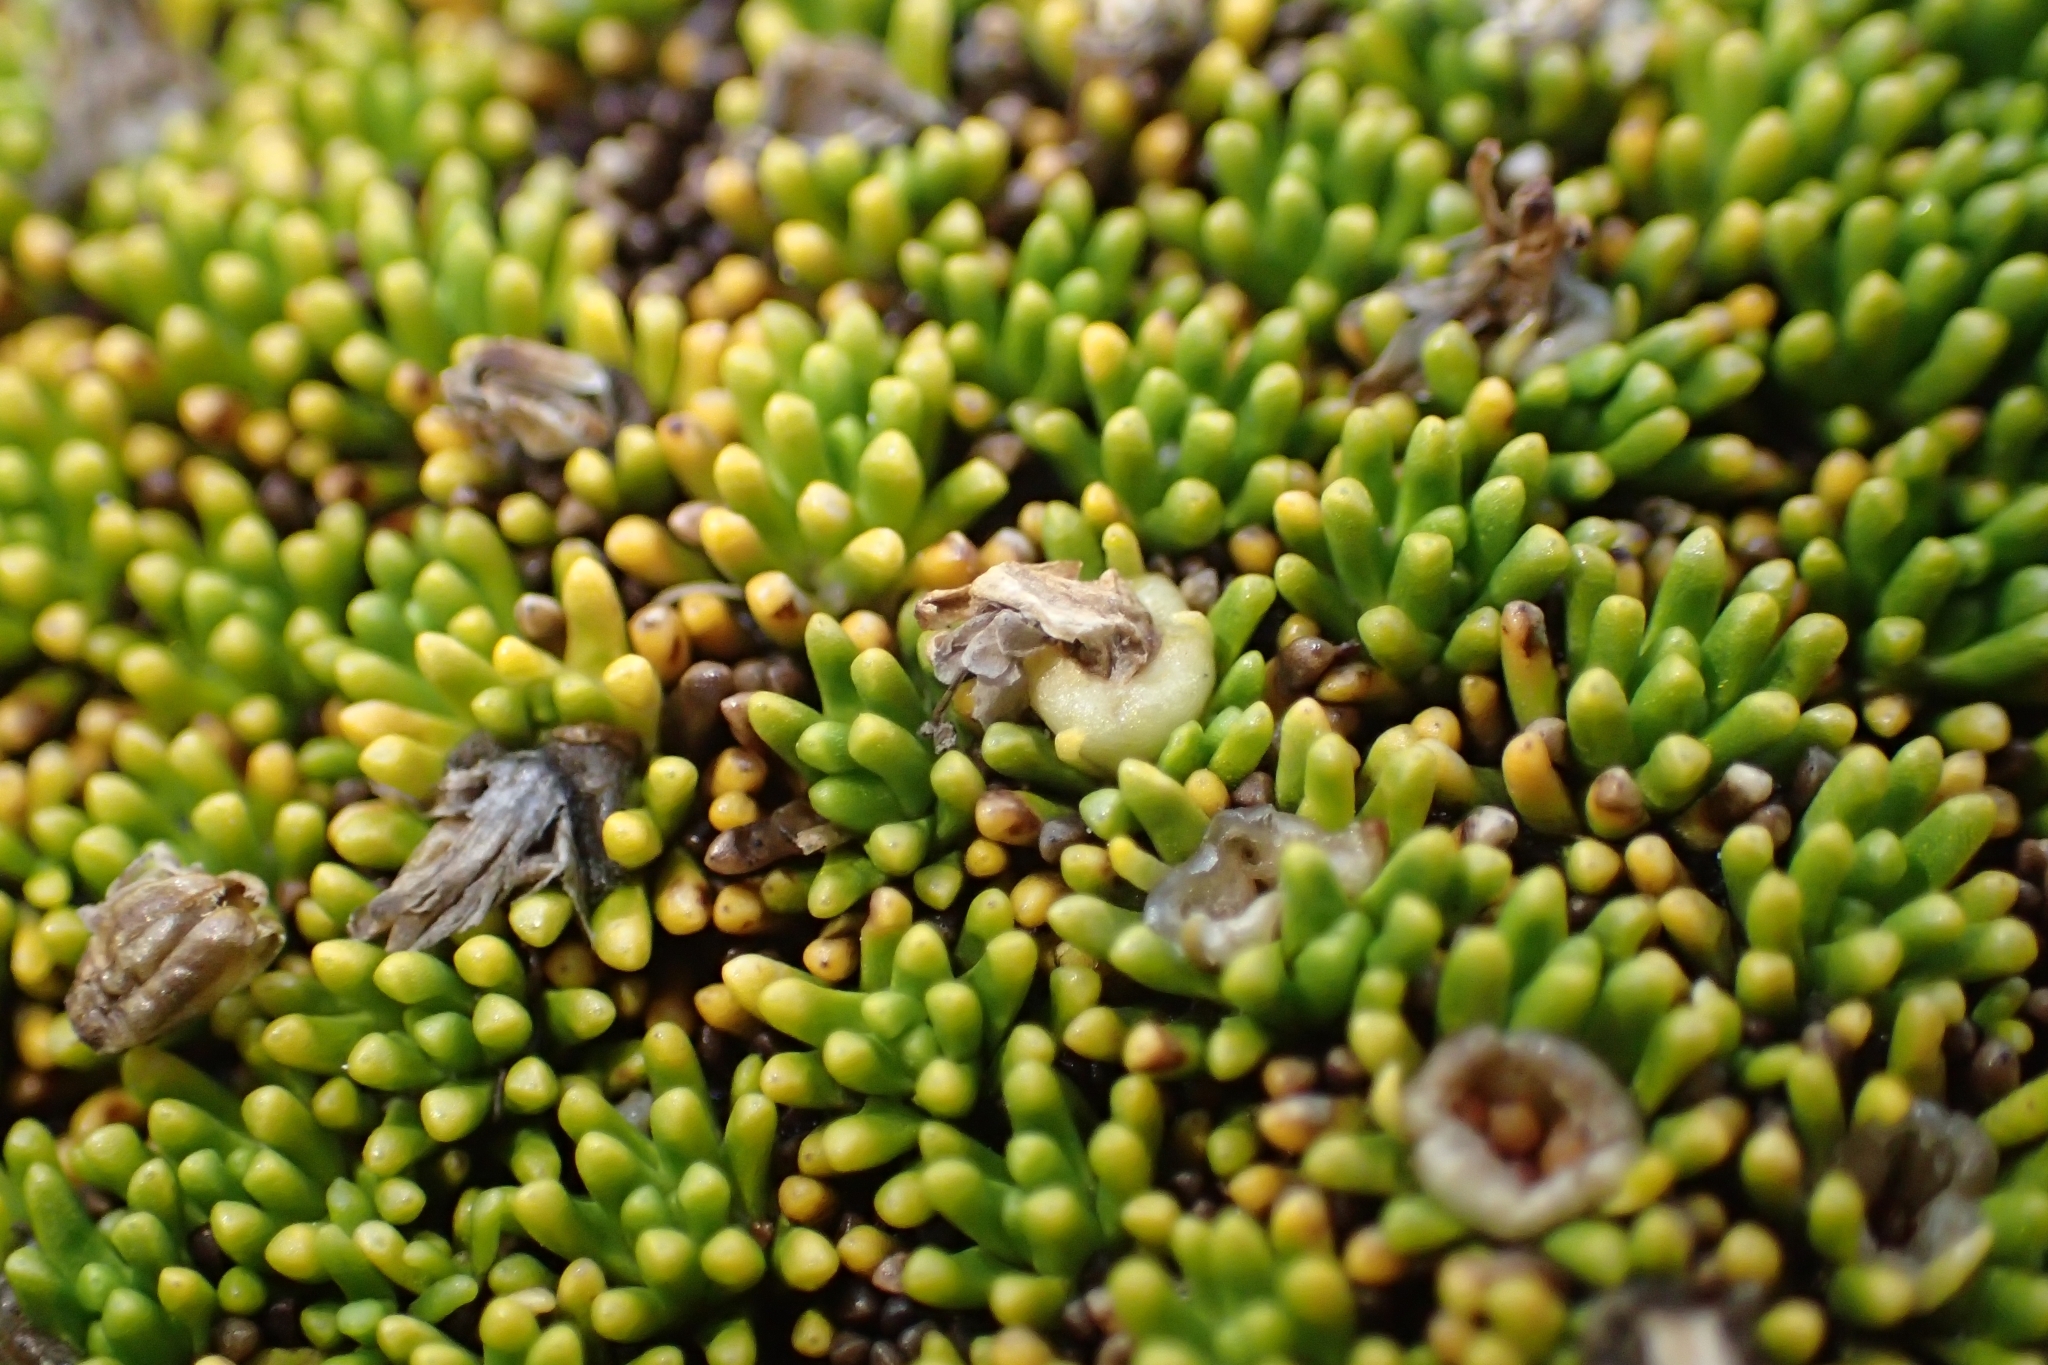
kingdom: Plantae
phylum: Tracheophyta
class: Magnoliopsida
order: Asterales
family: Stylidiaceae
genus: Phyllachne
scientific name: Phyllachne colensoi
